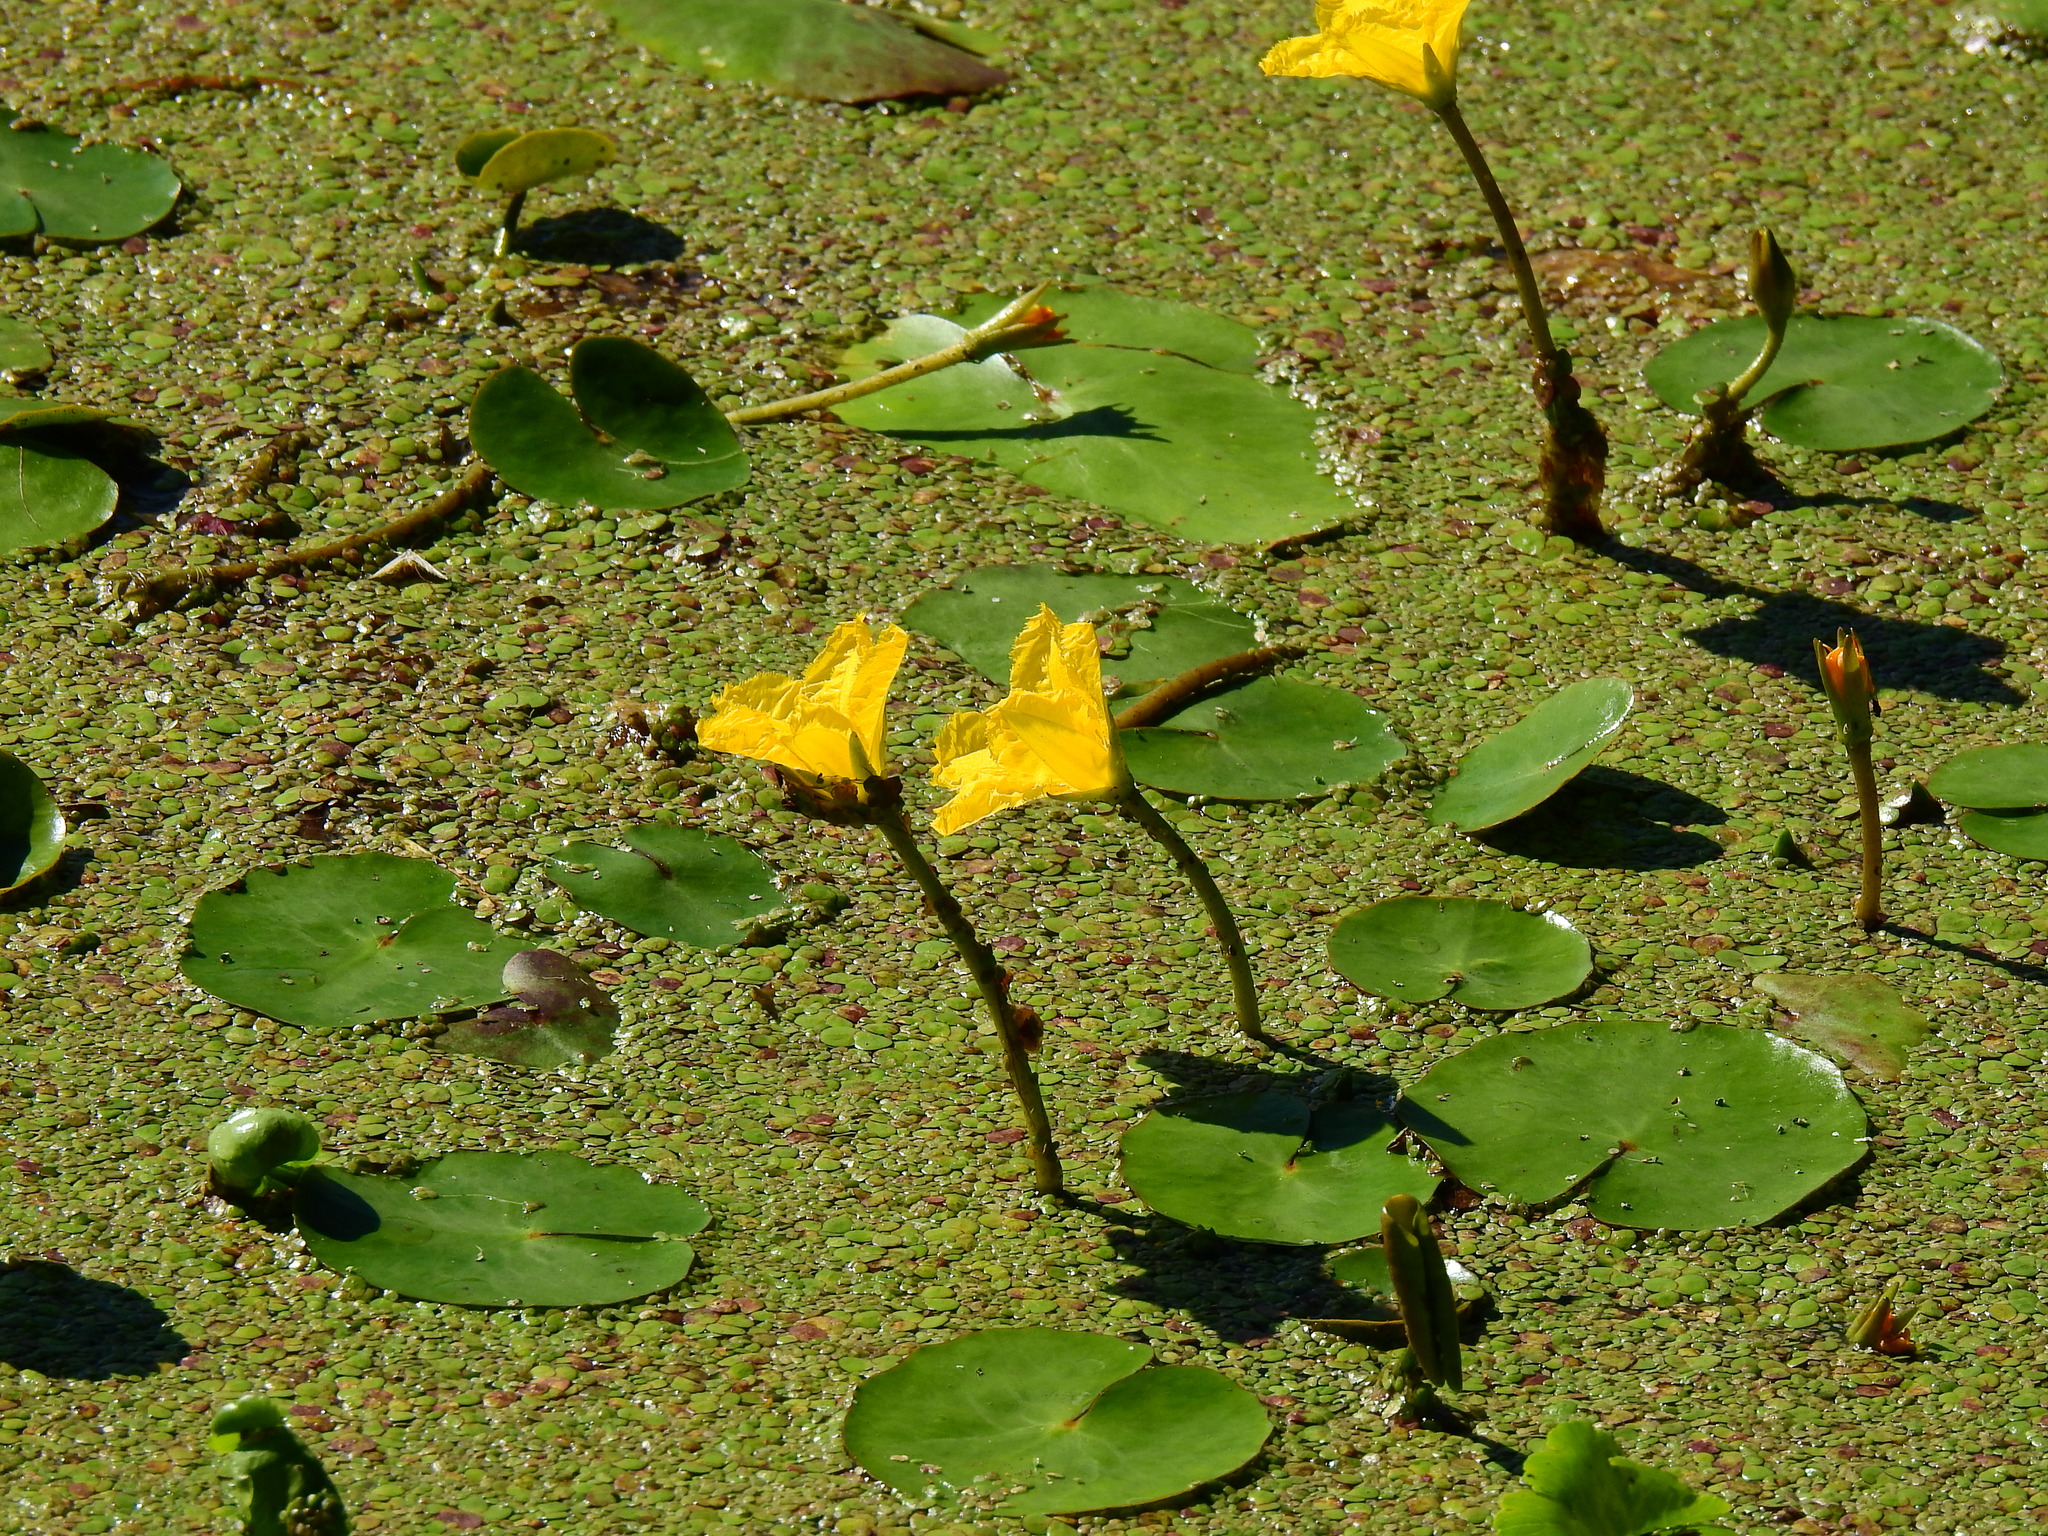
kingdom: Plantae
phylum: Tracheophyta
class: Magnoliopsida
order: Asterales
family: Menyanthaceae
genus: Nymphoides
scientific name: Nymphoides peltata
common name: Fringed water-lily
